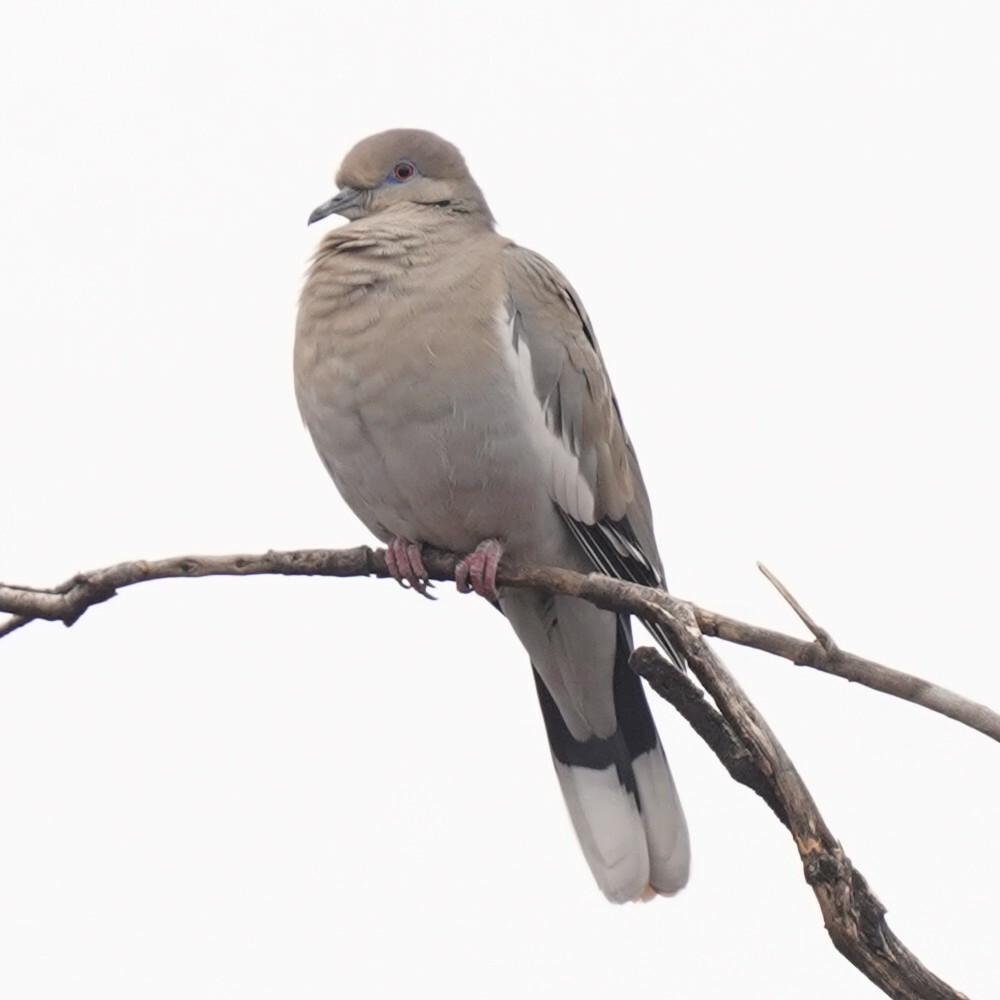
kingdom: Animalia
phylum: Chordata
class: Aves
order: Columbiformes
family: Columbidae
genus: Zenaida
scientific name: Zenaida asiatica
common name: White-winged dove
